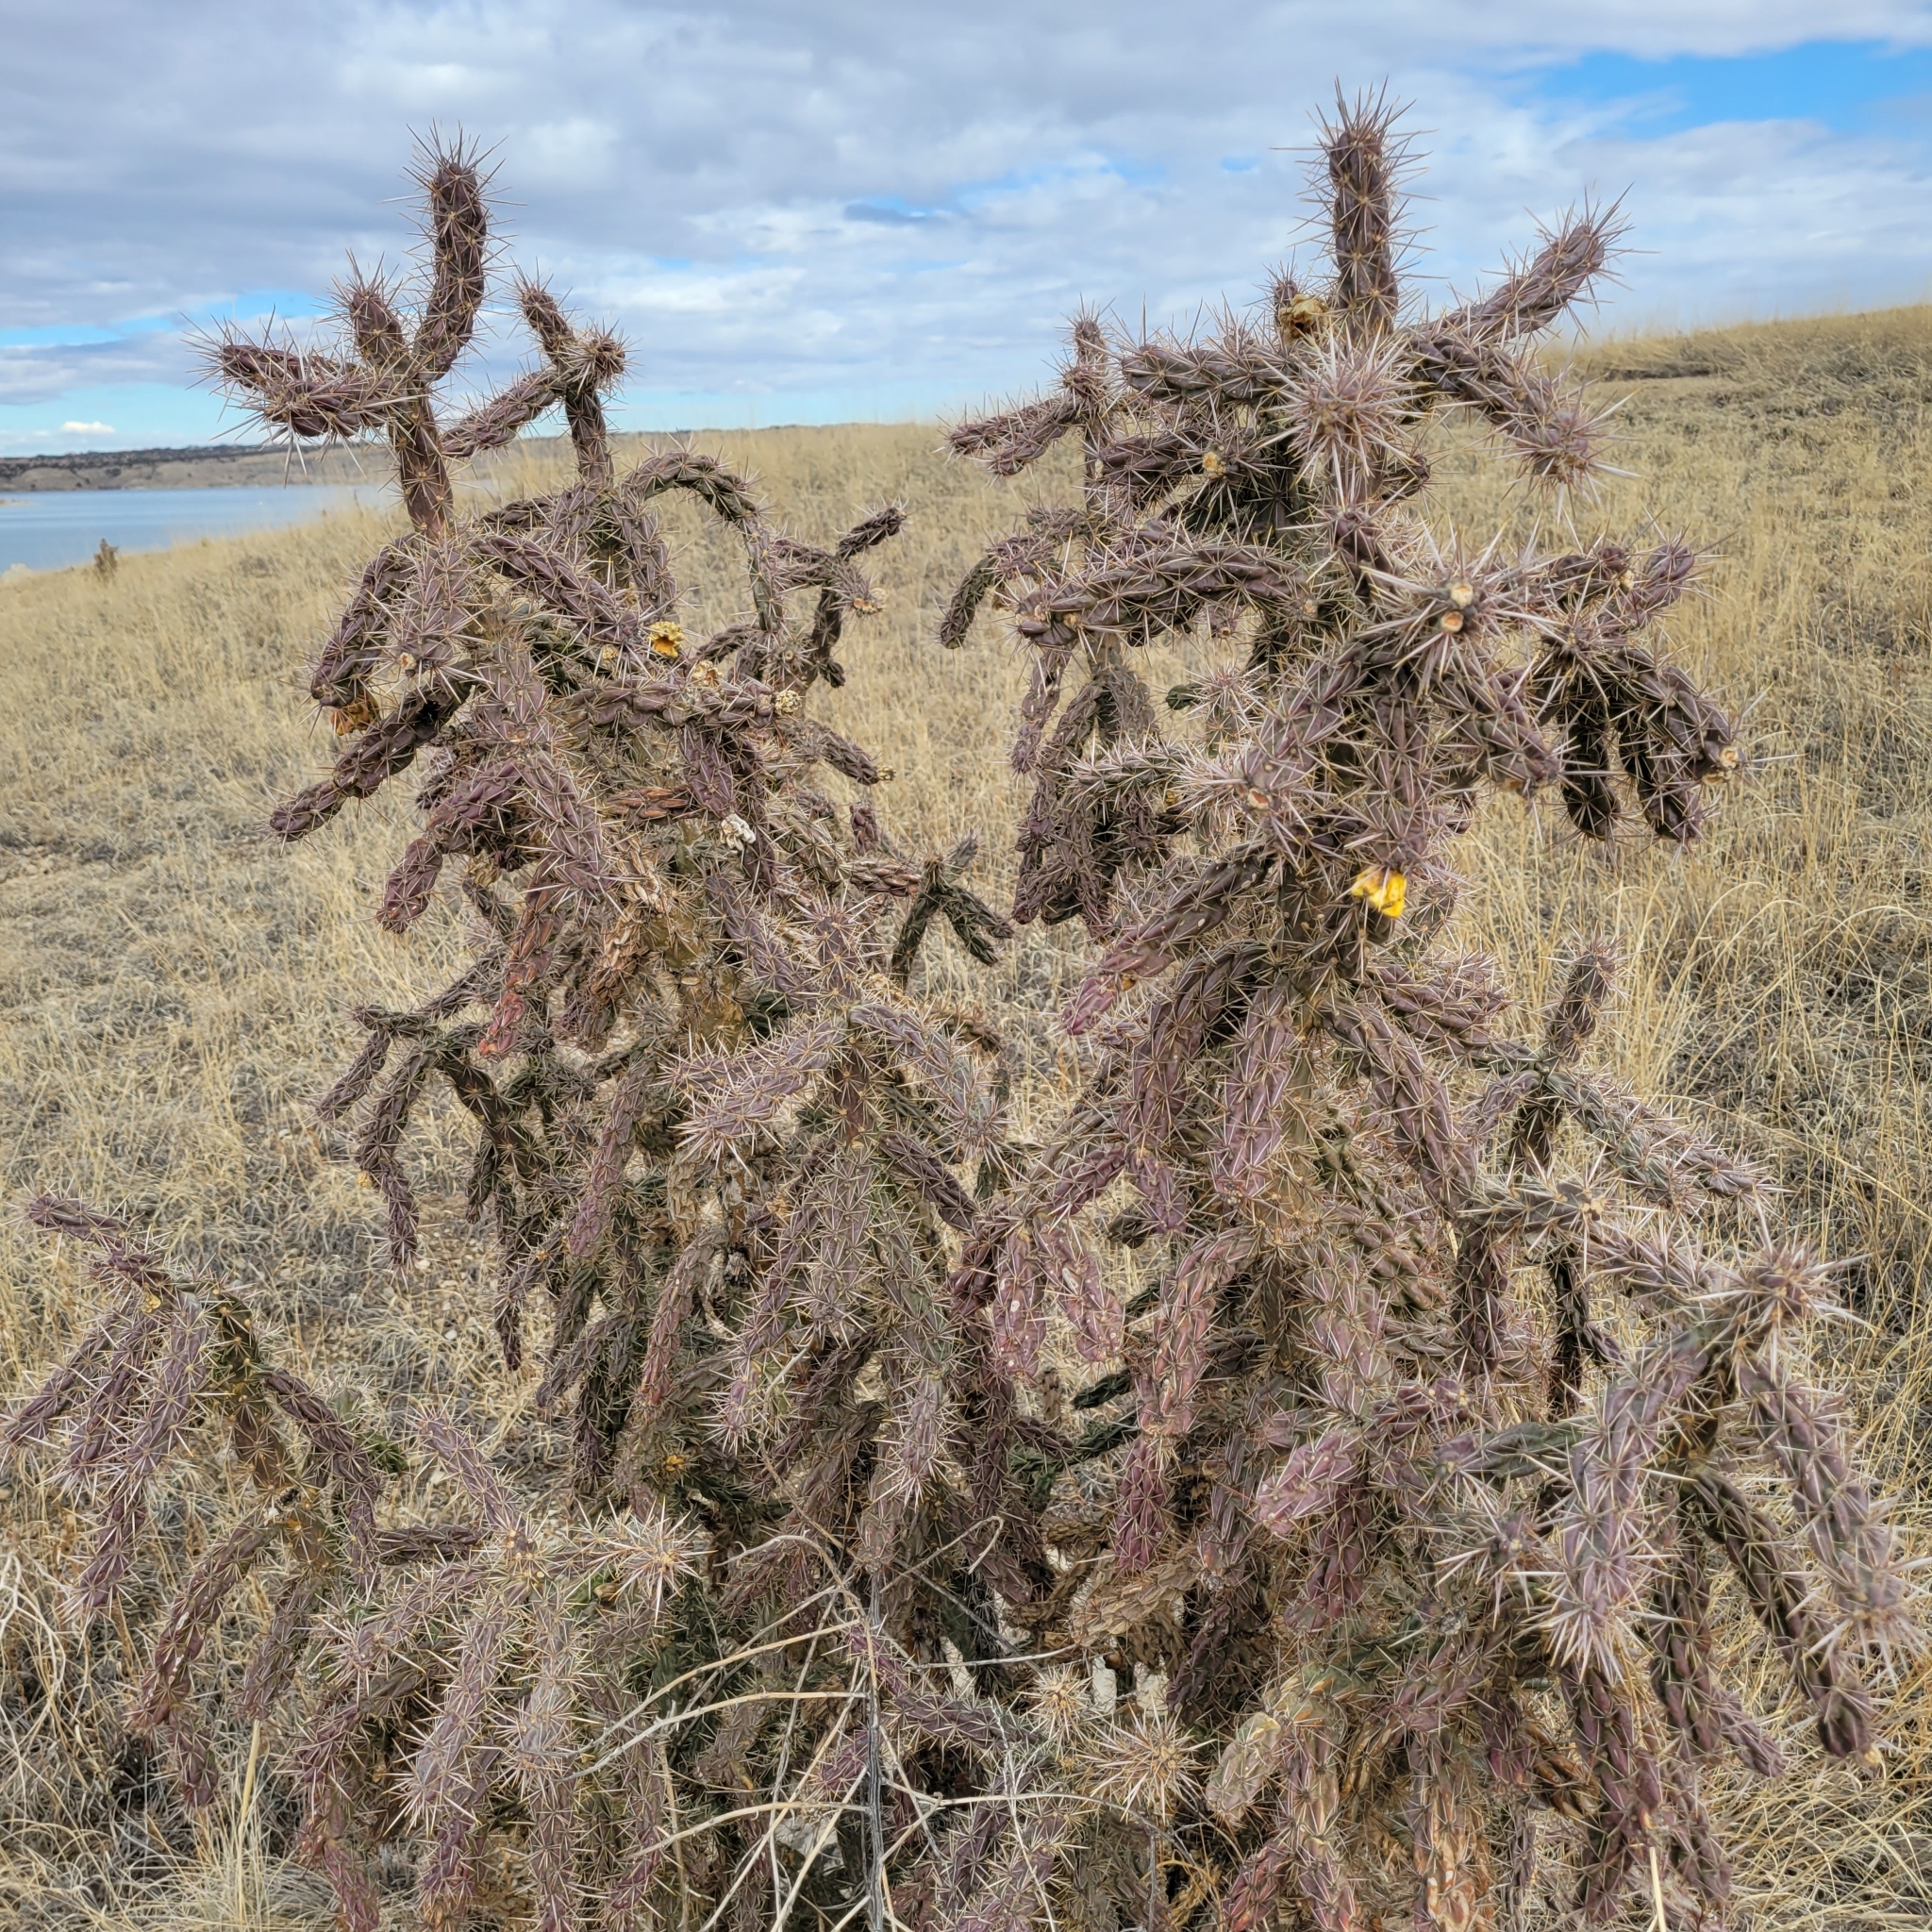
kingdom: Plantae
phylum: Tracheophyta
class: Magnoliopsida
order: Caryophyllales
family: Cactaceae
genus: Cylindropuntia
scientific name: Cylindropuntia imbricata
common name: Candelabrum cactus
